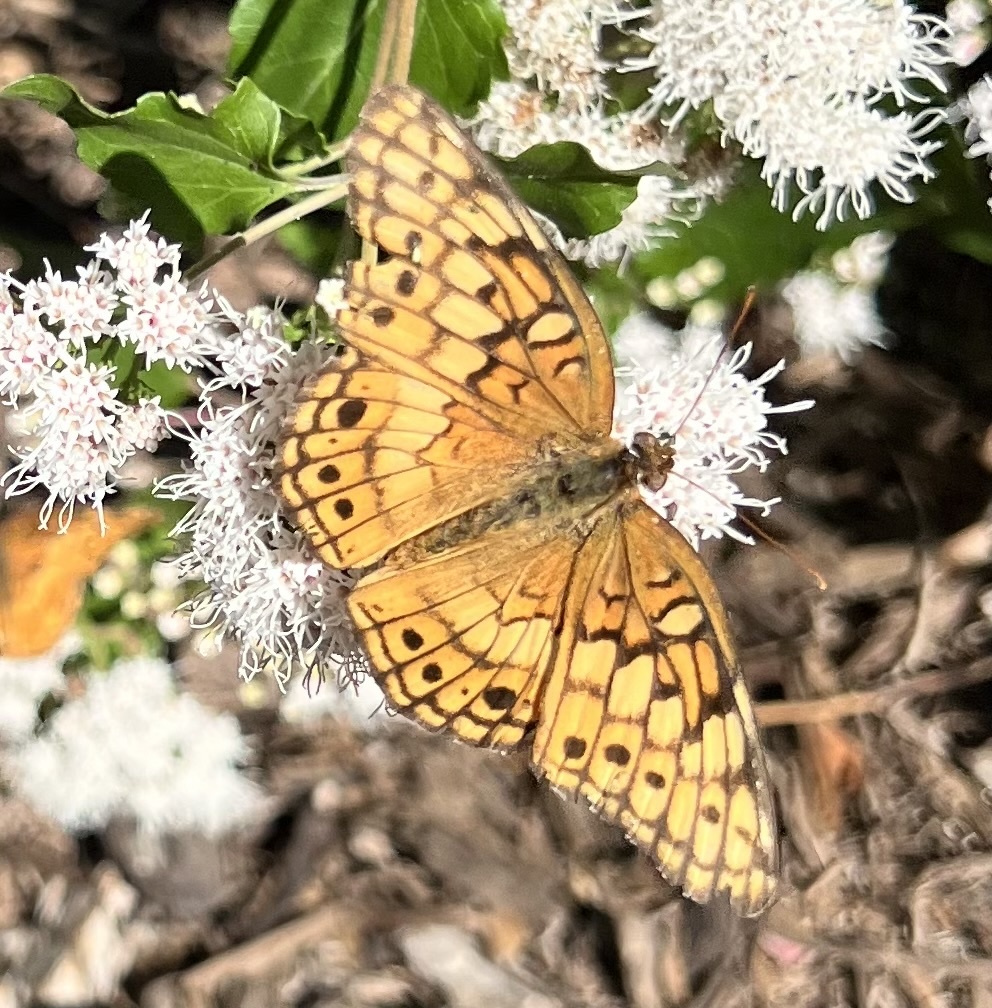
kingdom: Animalia
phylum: Arthropoda
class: Insecta
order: Lepidoptera
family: Nymphalidae
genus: Euptoieta
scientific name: Euptoieta claudia
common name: Variegated fritillary
